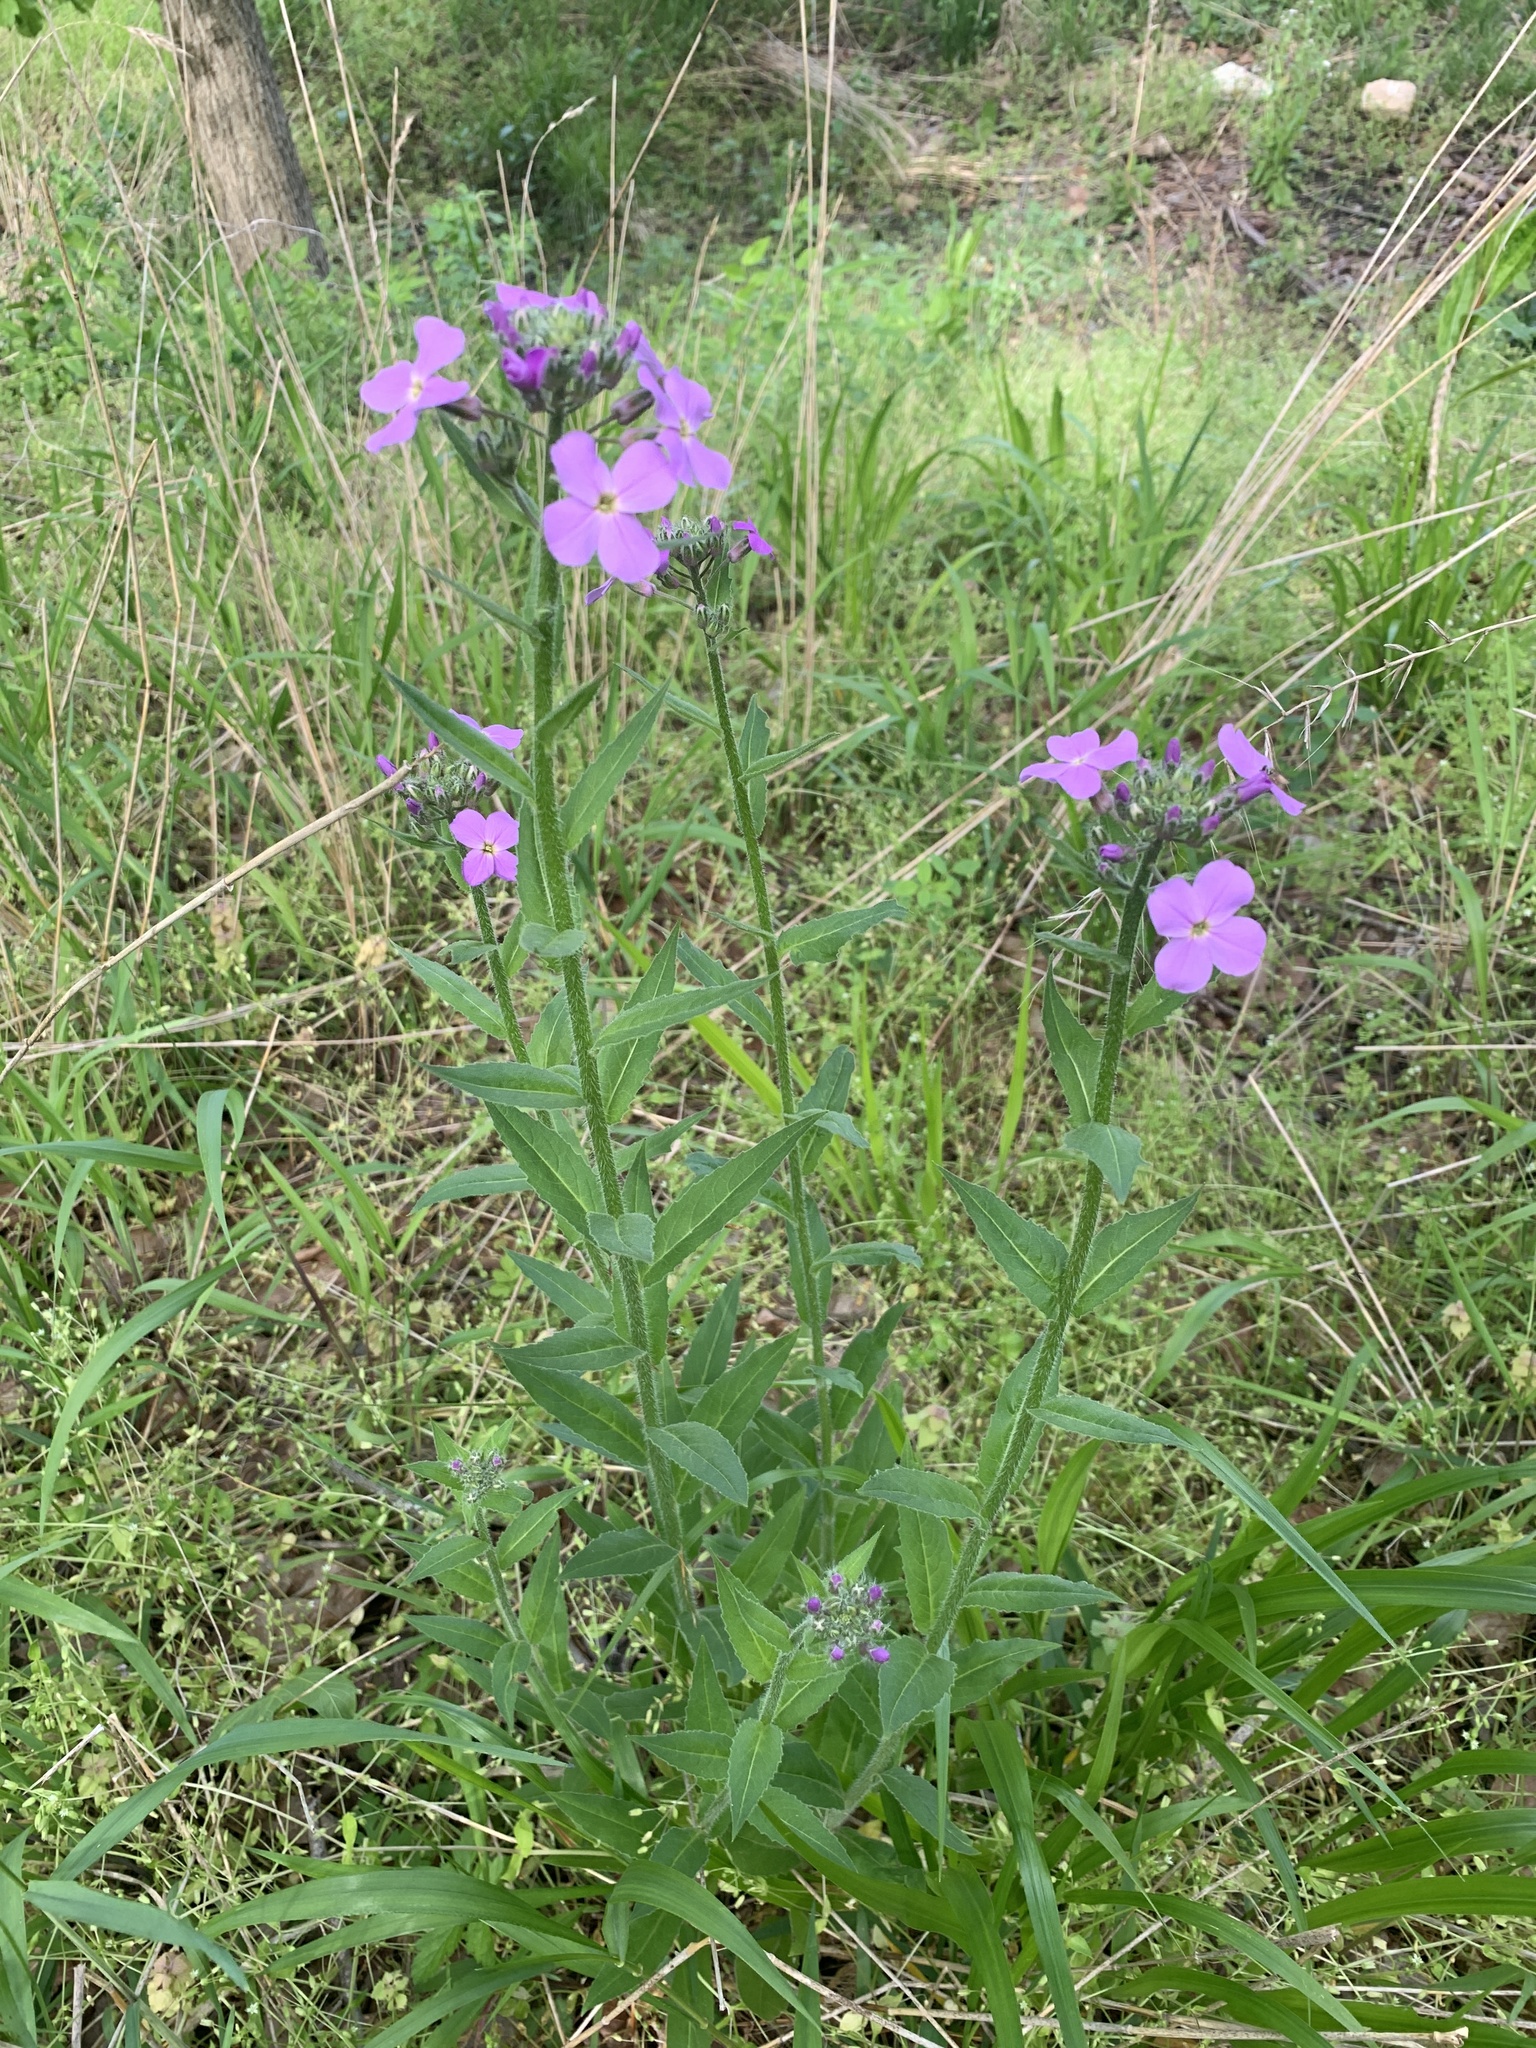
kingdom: Plantae
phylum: Tracheophyta
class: Magnoliopsida
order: Brassicales
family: Brassicaceae
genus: Hesperis
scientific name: Hesperis matronalis
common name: Dame's-violet
